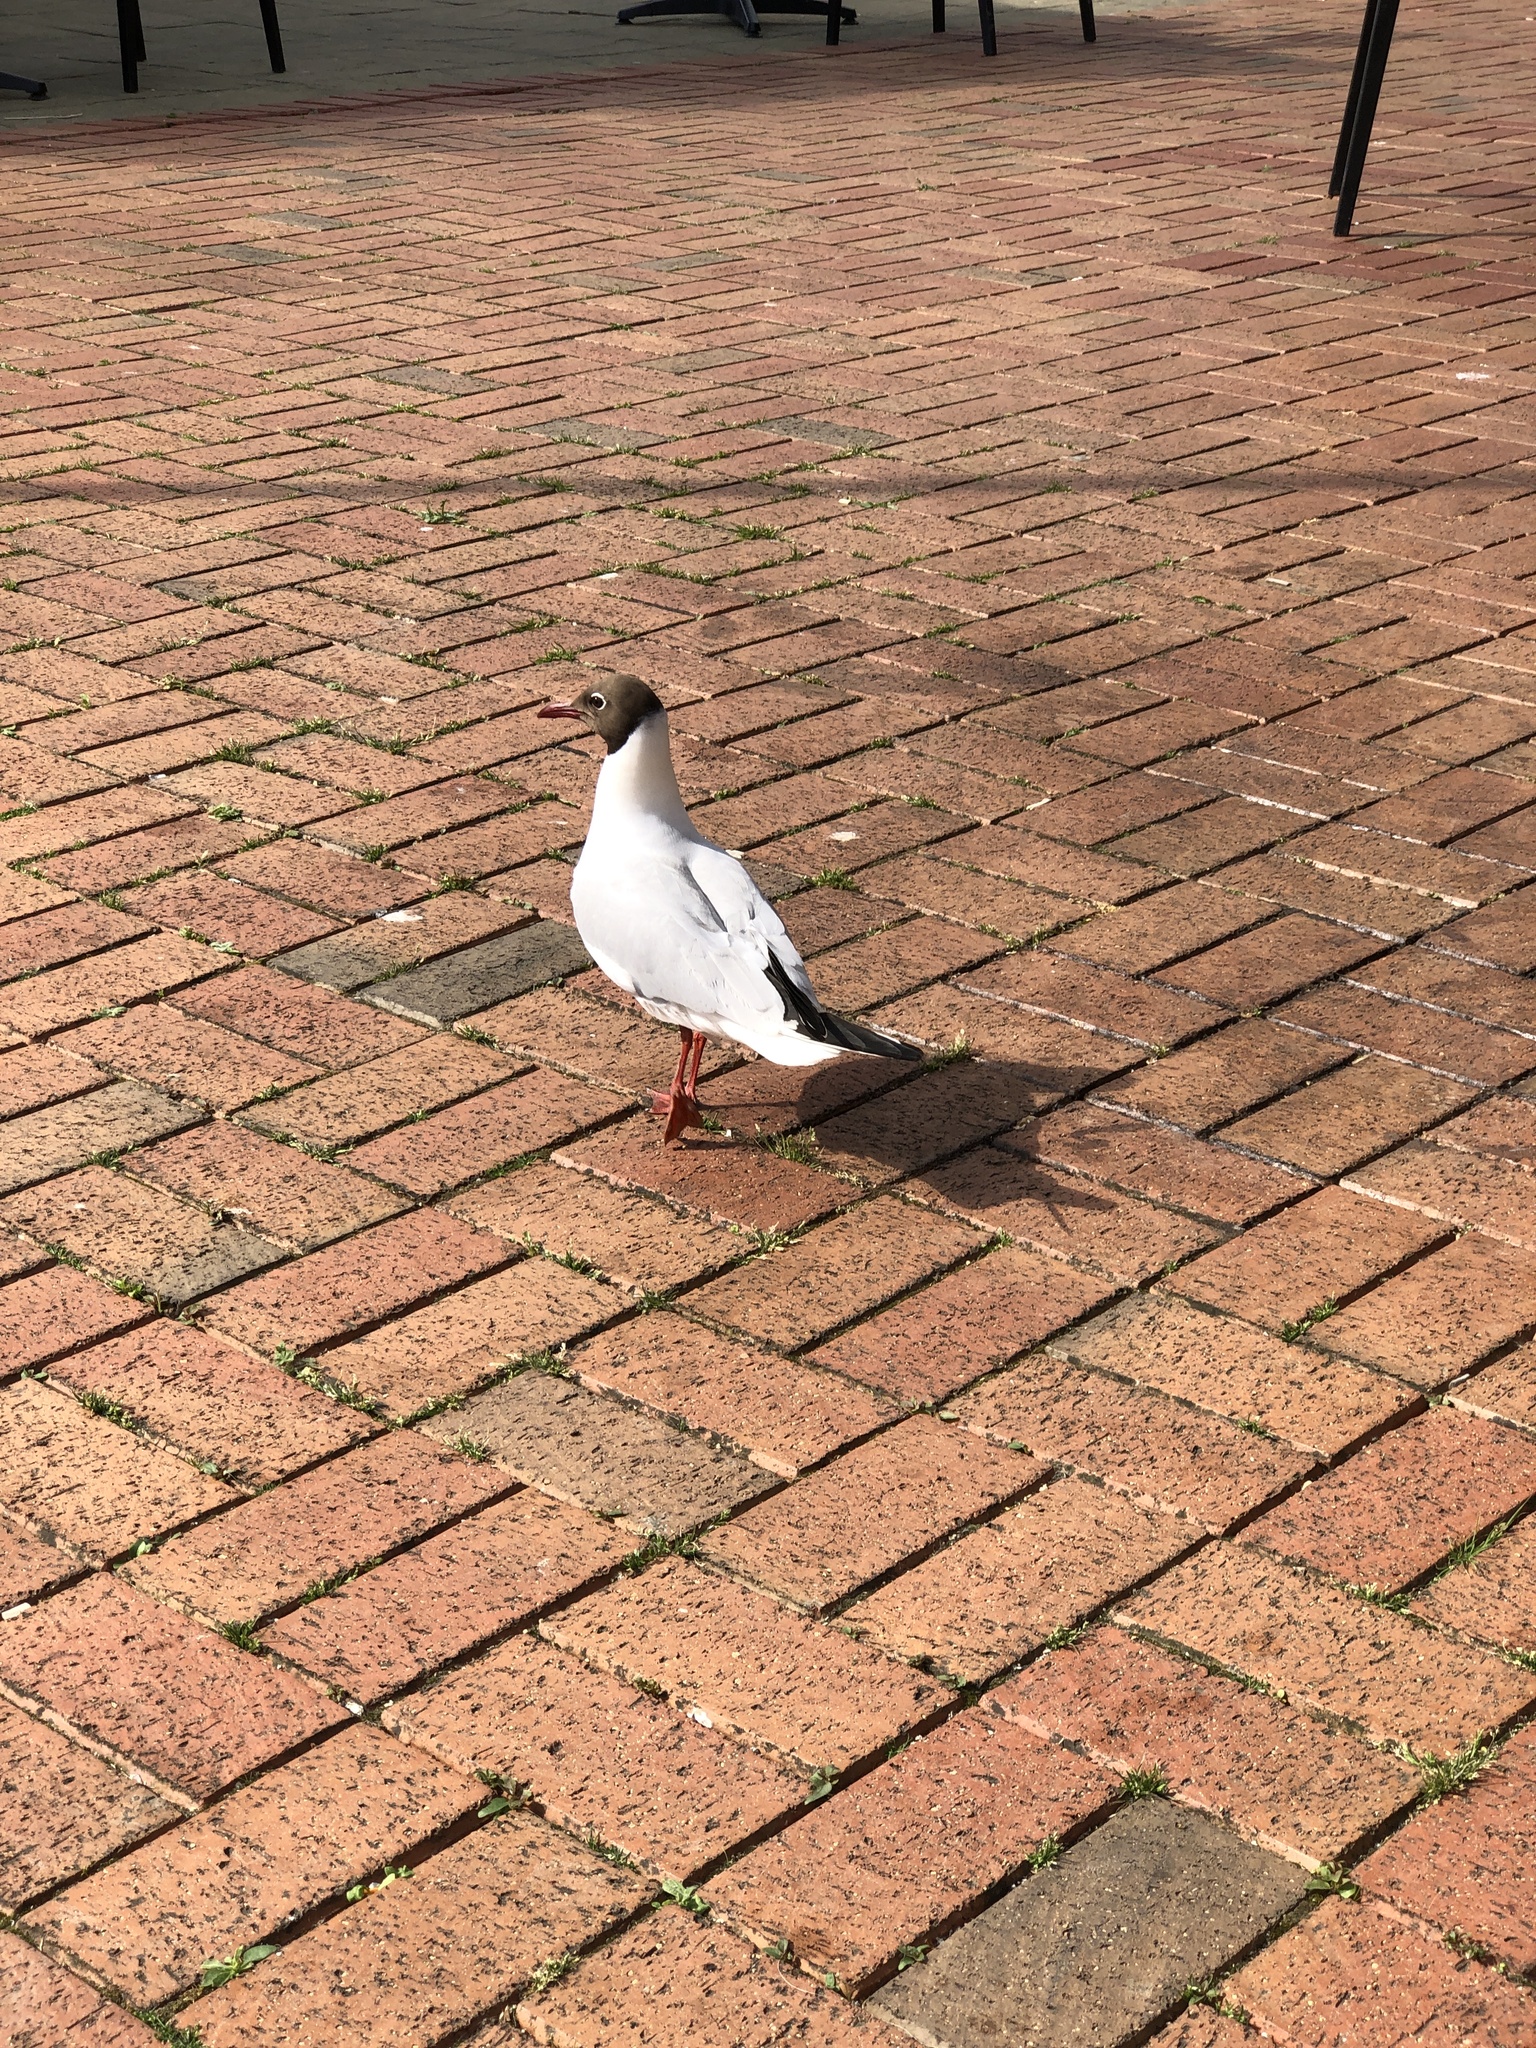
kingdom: Animalia
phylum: Chordata
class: Aves
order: Charadriiformes
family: Laridae
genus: Chroicocephalus
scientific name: Chroicocephalus ridibundus
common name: Black-headed gull
